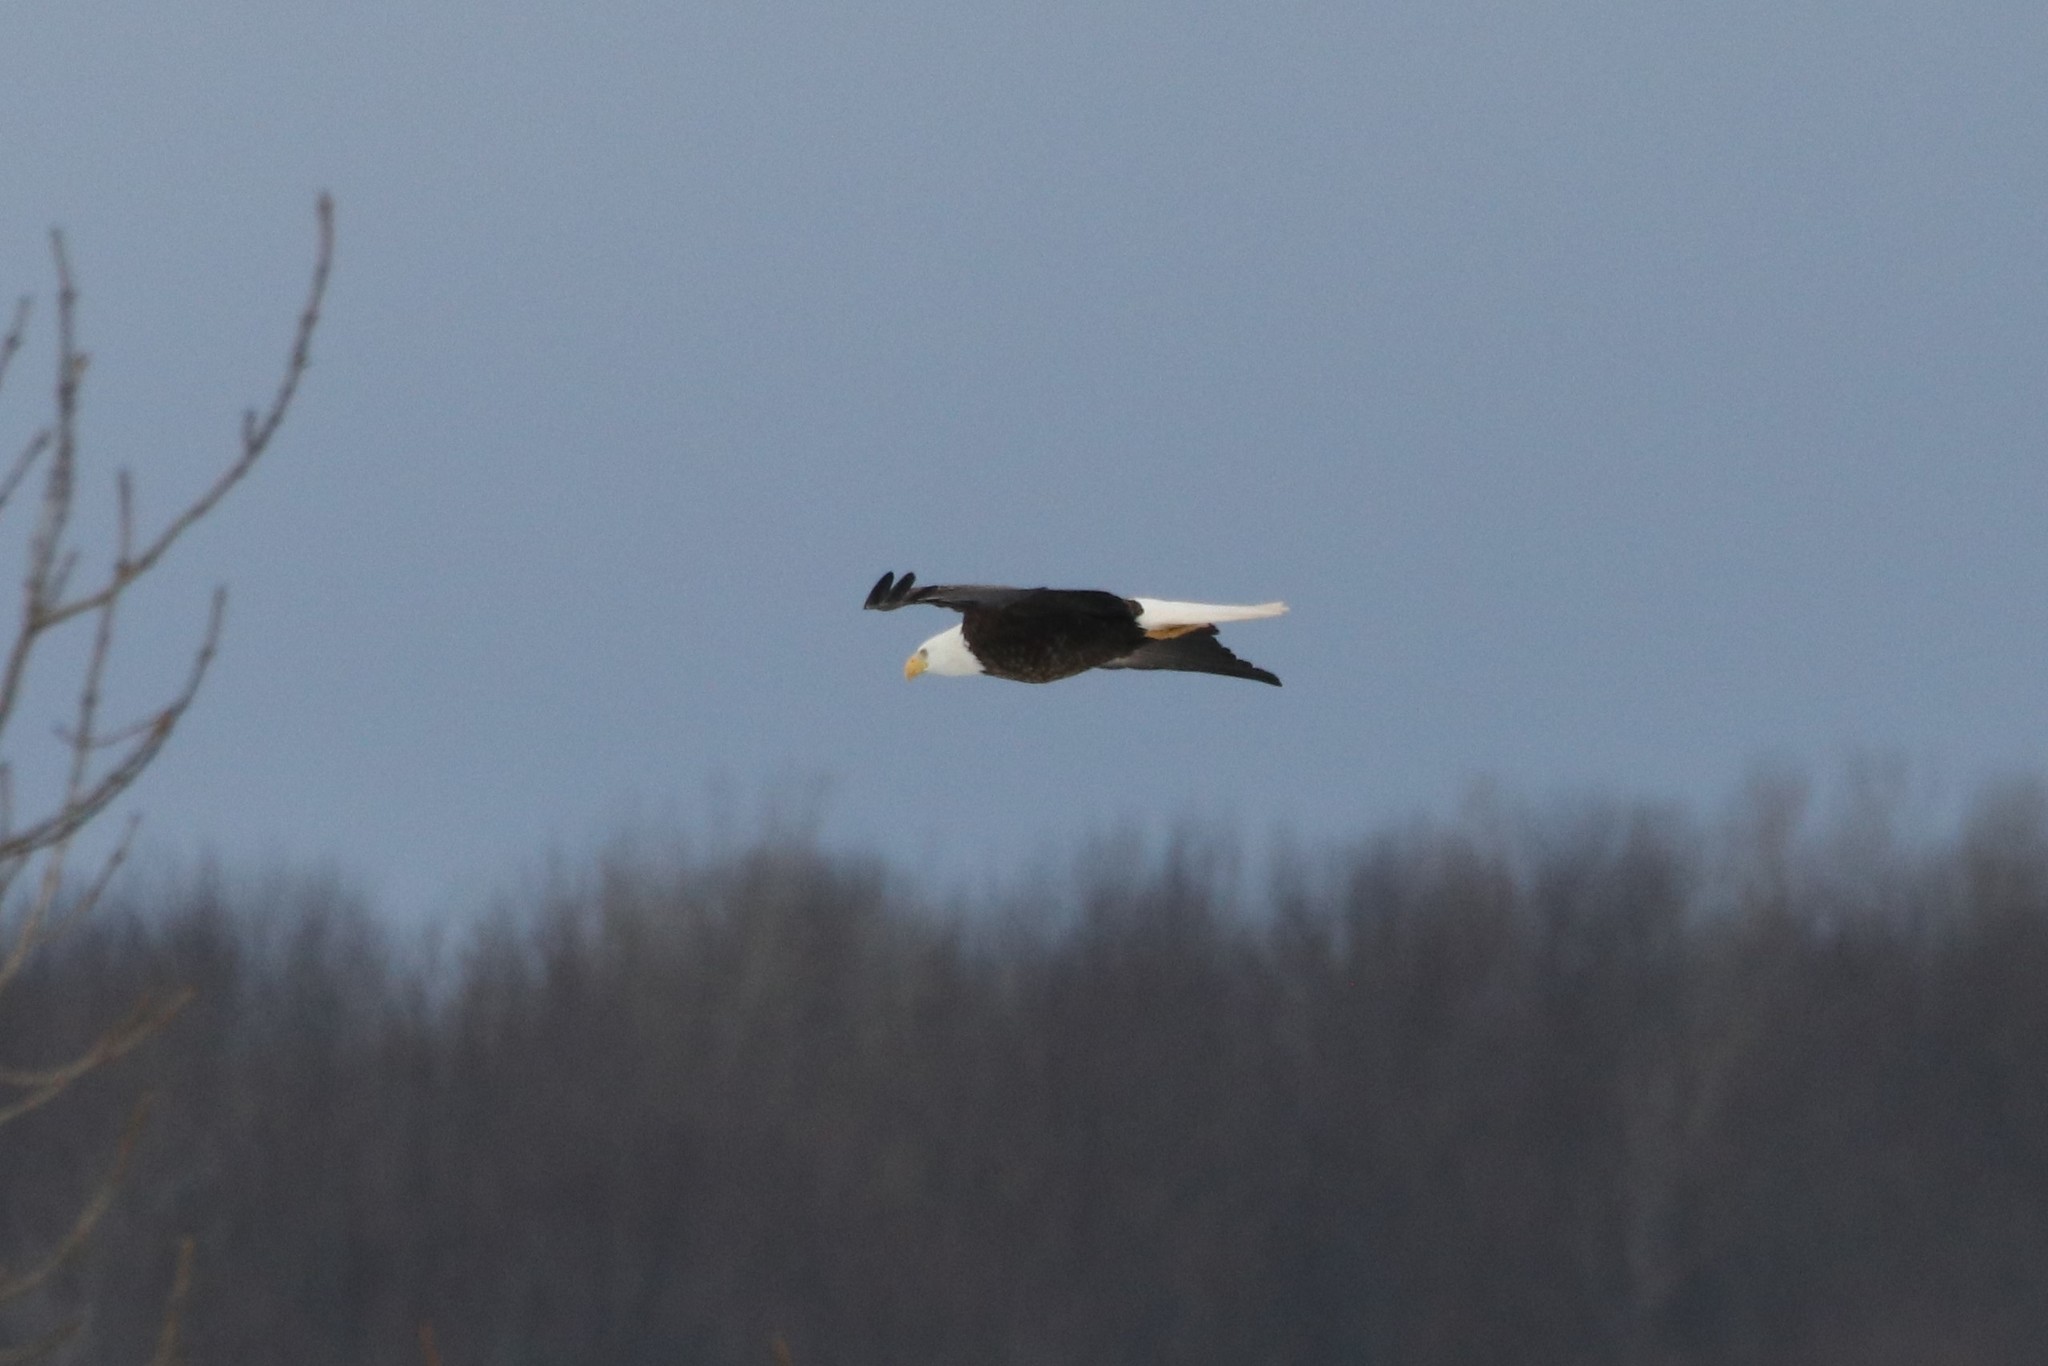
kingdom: Animalia
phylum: Chordata
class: Aves
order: Accipitriformes
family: Accipitridae
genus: Haliaeetus
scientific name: Haliaeetus leucocephalus
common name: Bald eagle
